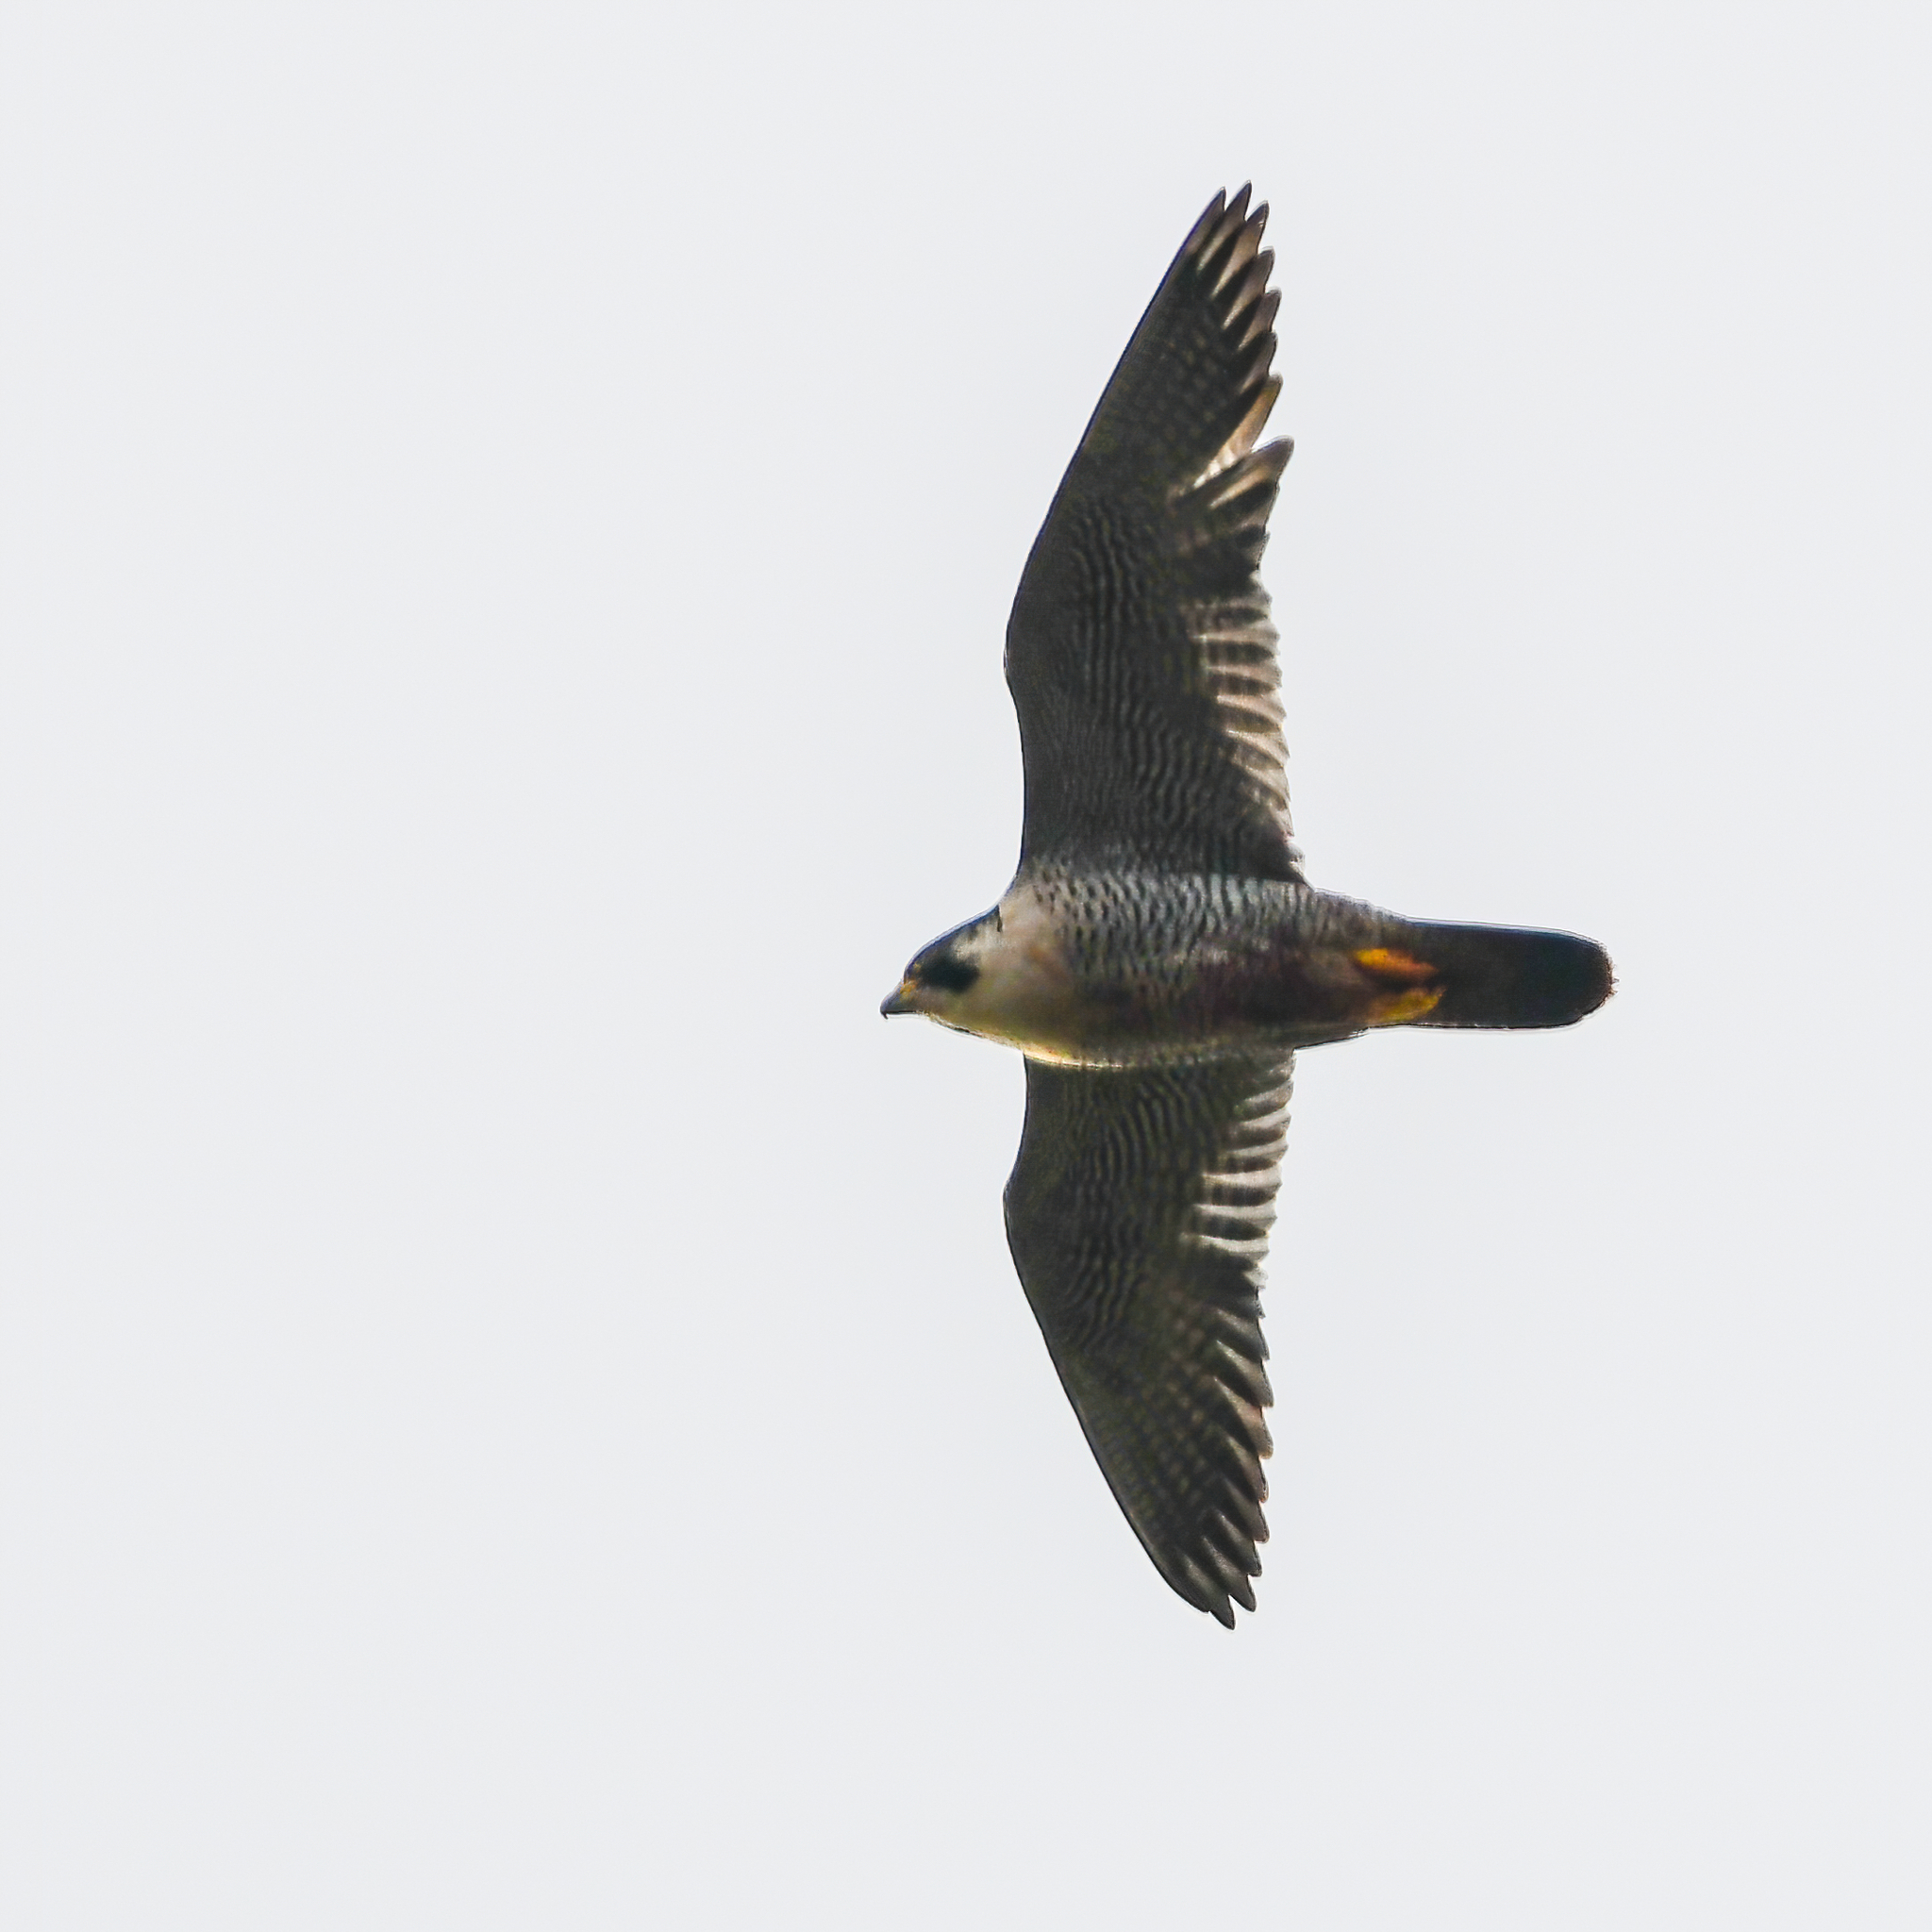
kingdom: Animalia
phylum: Chordata
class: Aves
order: Falconiformes
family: Falconidae
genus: Falco
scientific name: Falco peregrinus
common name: Peregrine falcon
